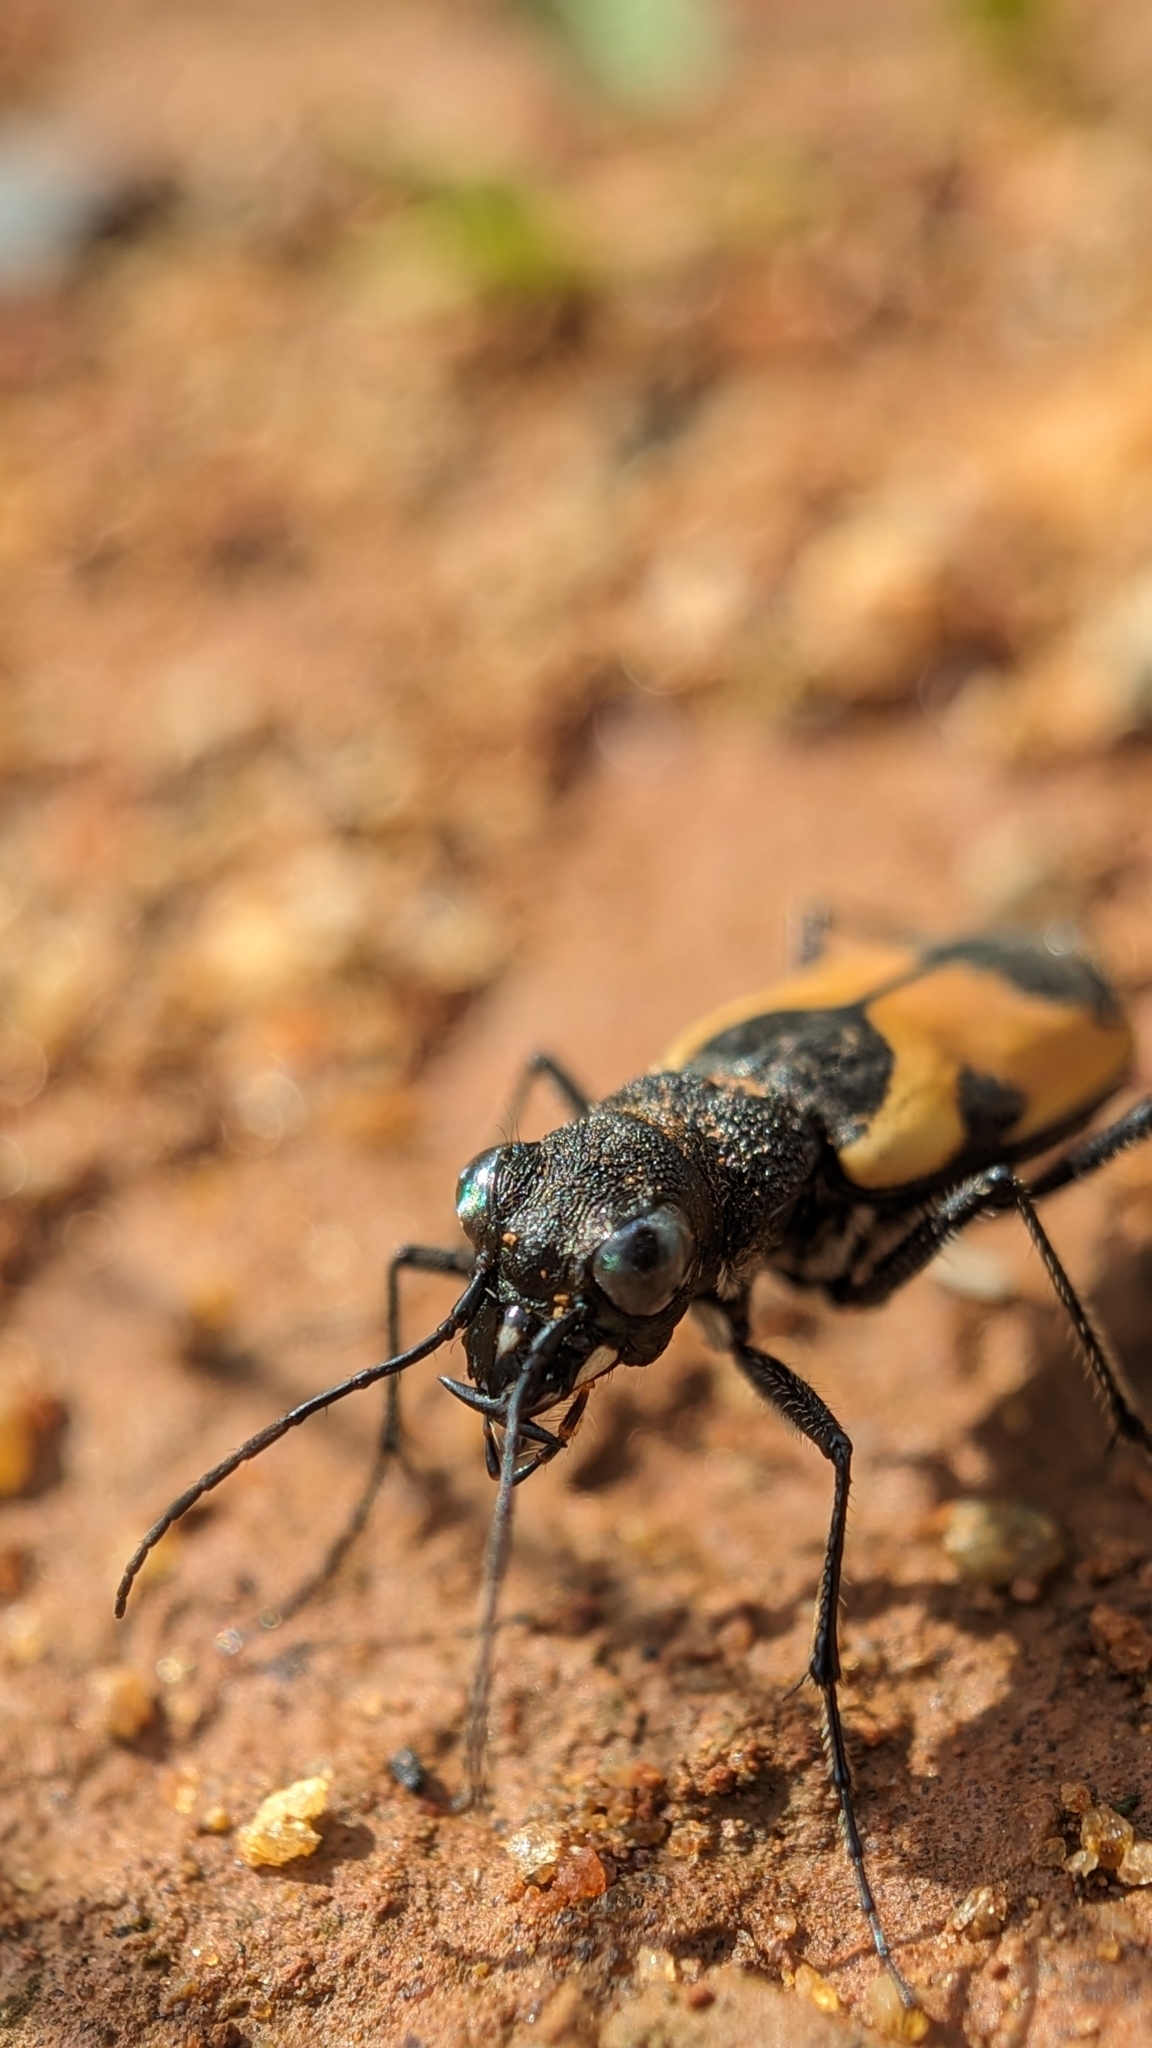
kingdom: Animalia
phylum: Arthropoda
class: Insecta
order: Coleoptera
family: Carabidae
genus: Cicindela
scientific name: Cicindela goryi
